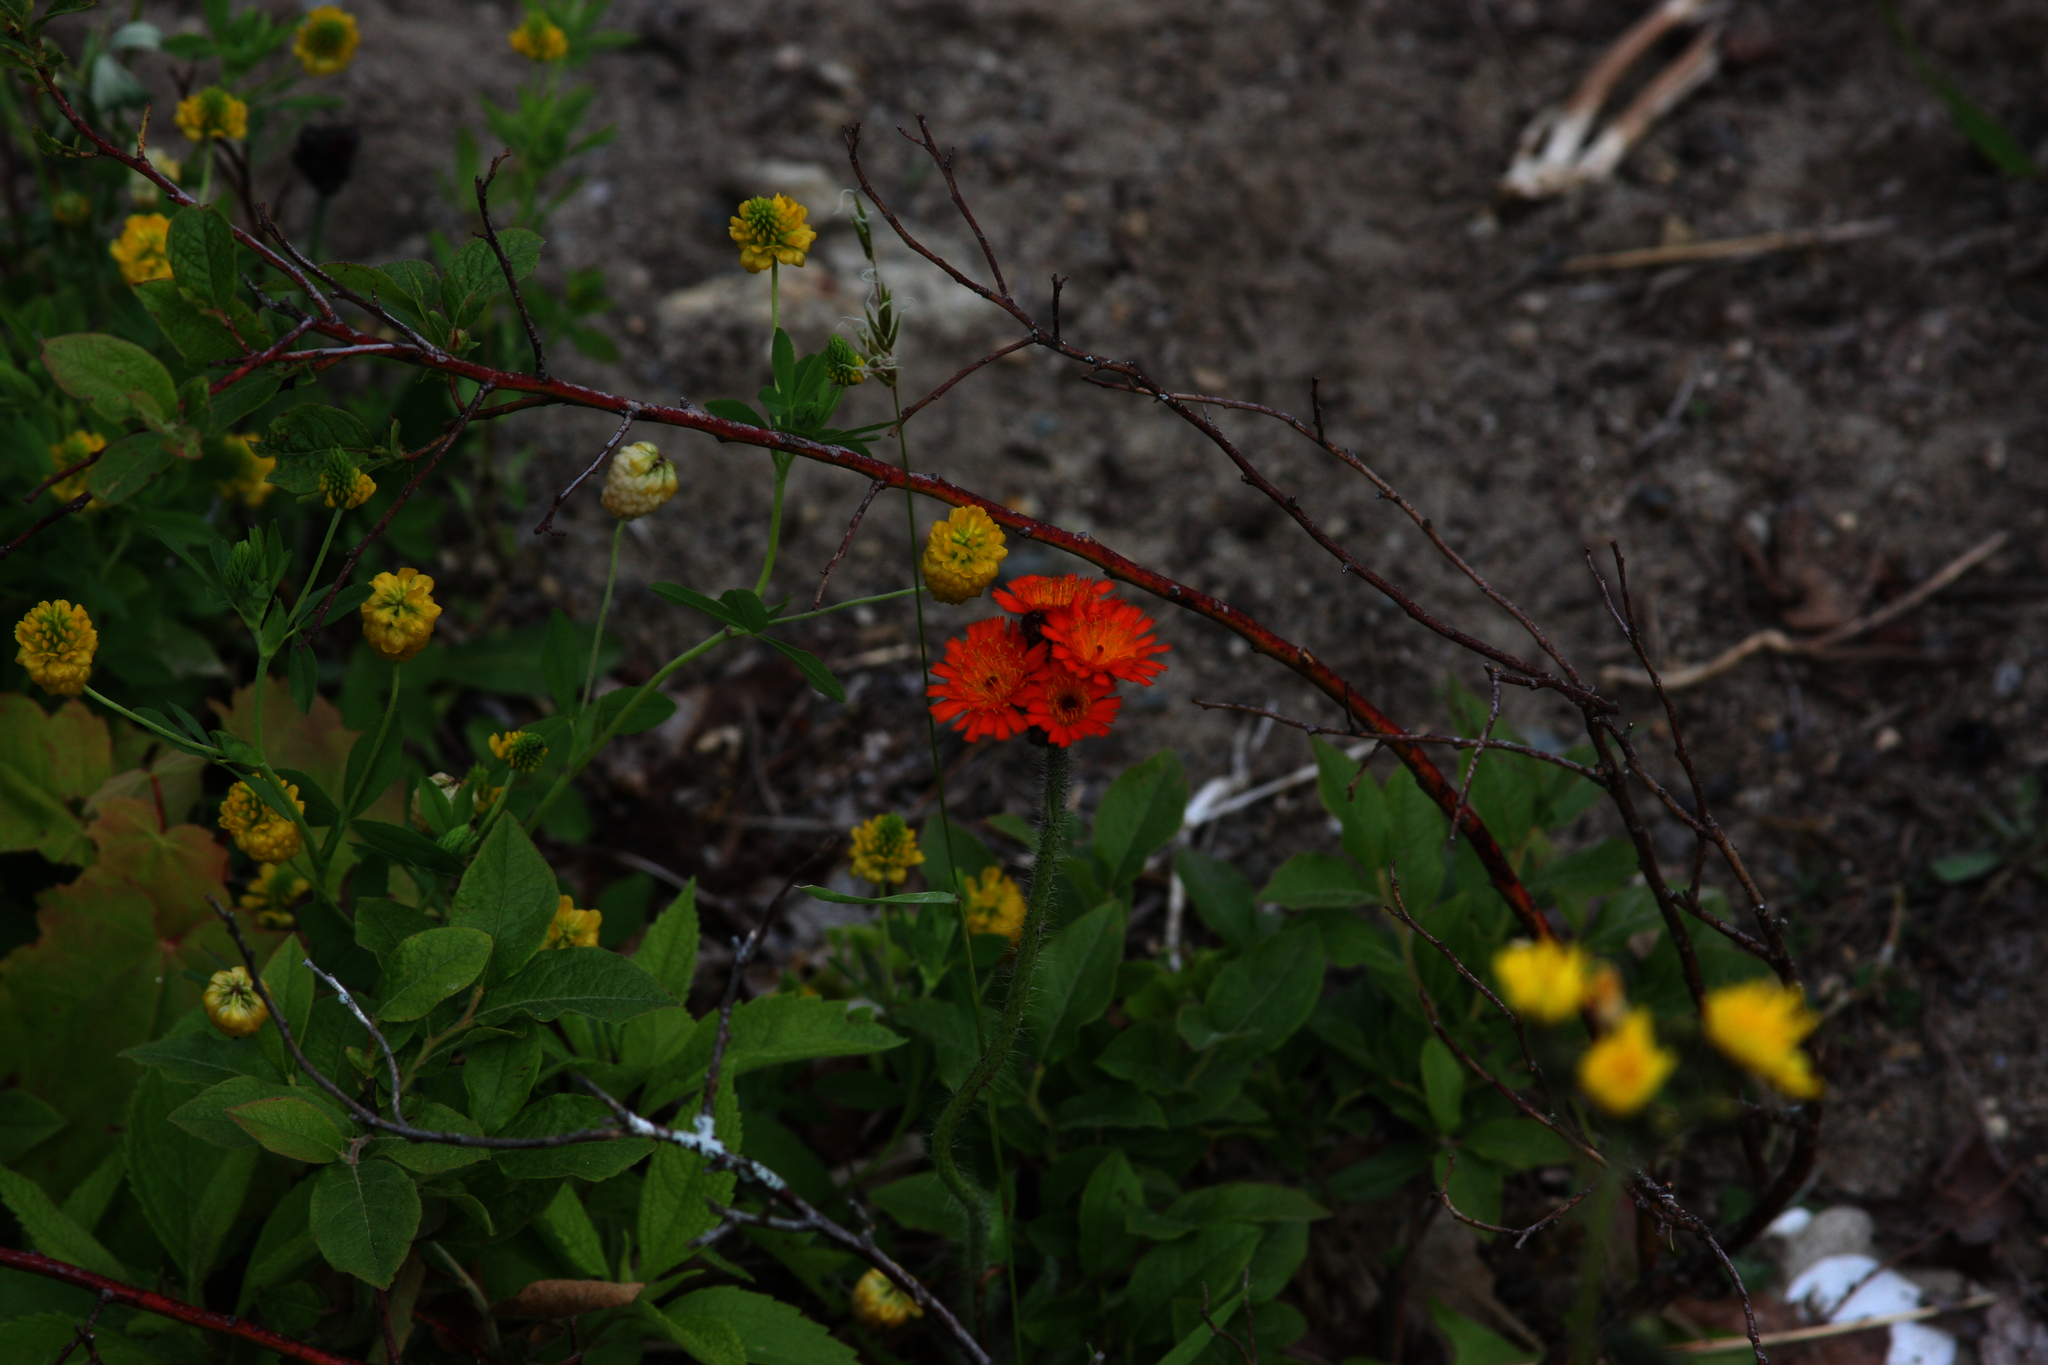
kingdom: Plantae
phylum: Tracheophyta
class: Magnoliopsida
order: Fabales
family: Fabaceae
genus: Trifolium
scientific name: Trifolium aureum
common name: Golden clover
